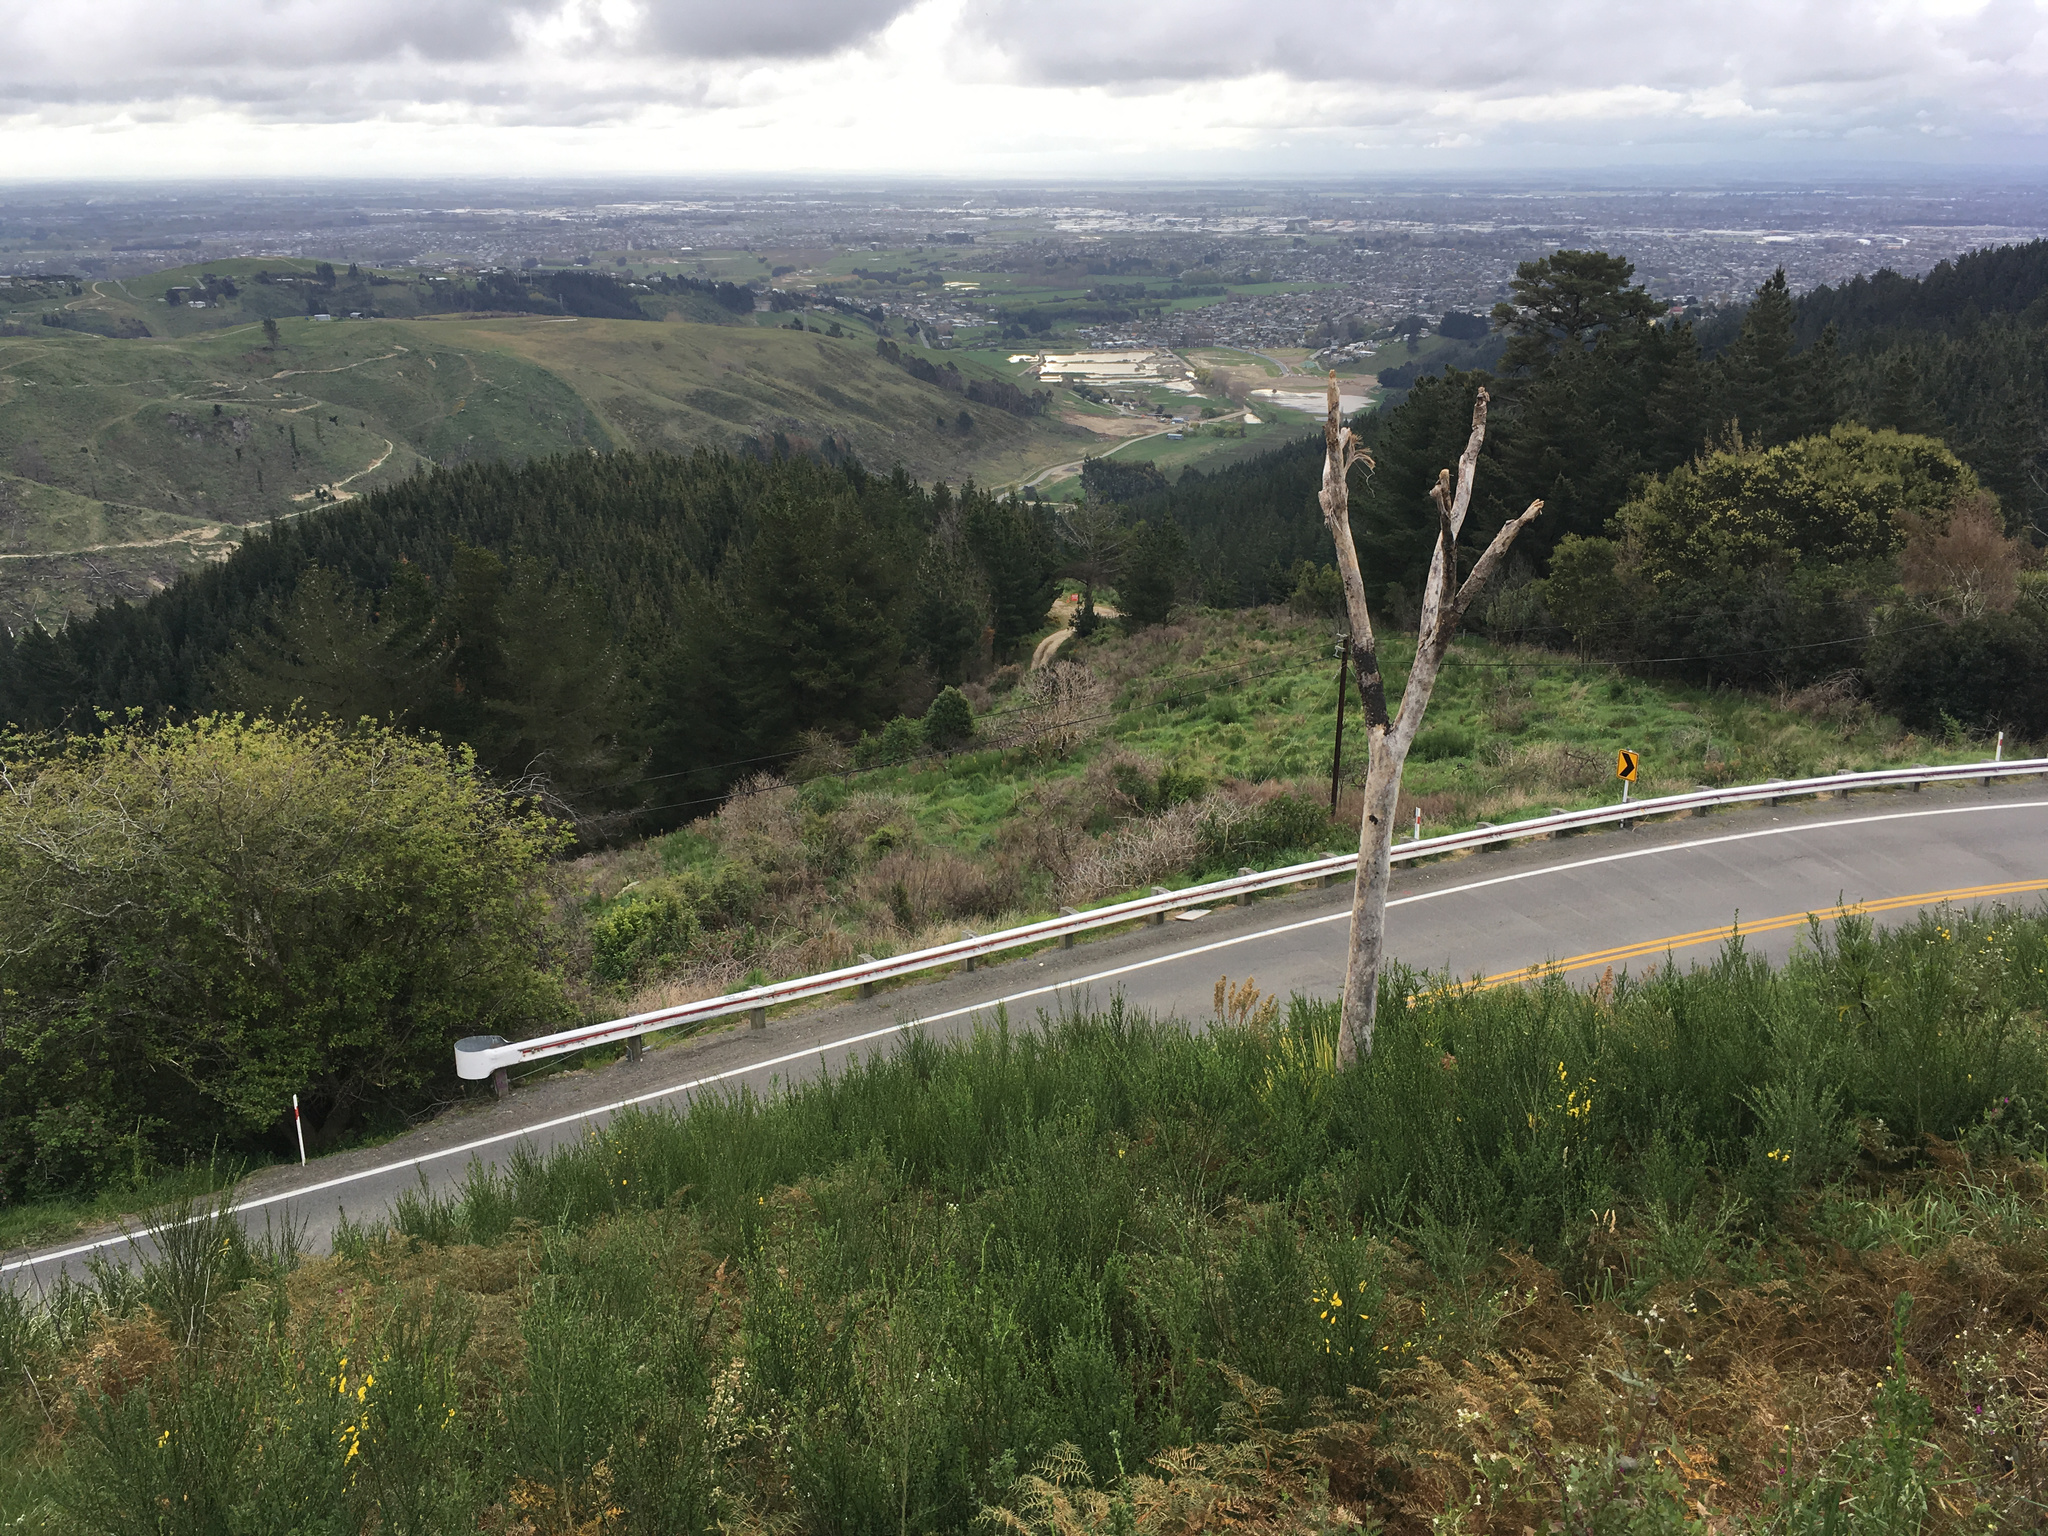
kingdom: Plantae
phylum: Tracheophyta
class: Liliopsida
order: Asparagales
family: Asparagaceae
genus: Cordyline
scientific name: Cordyline australis
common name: Cabbage-palm
